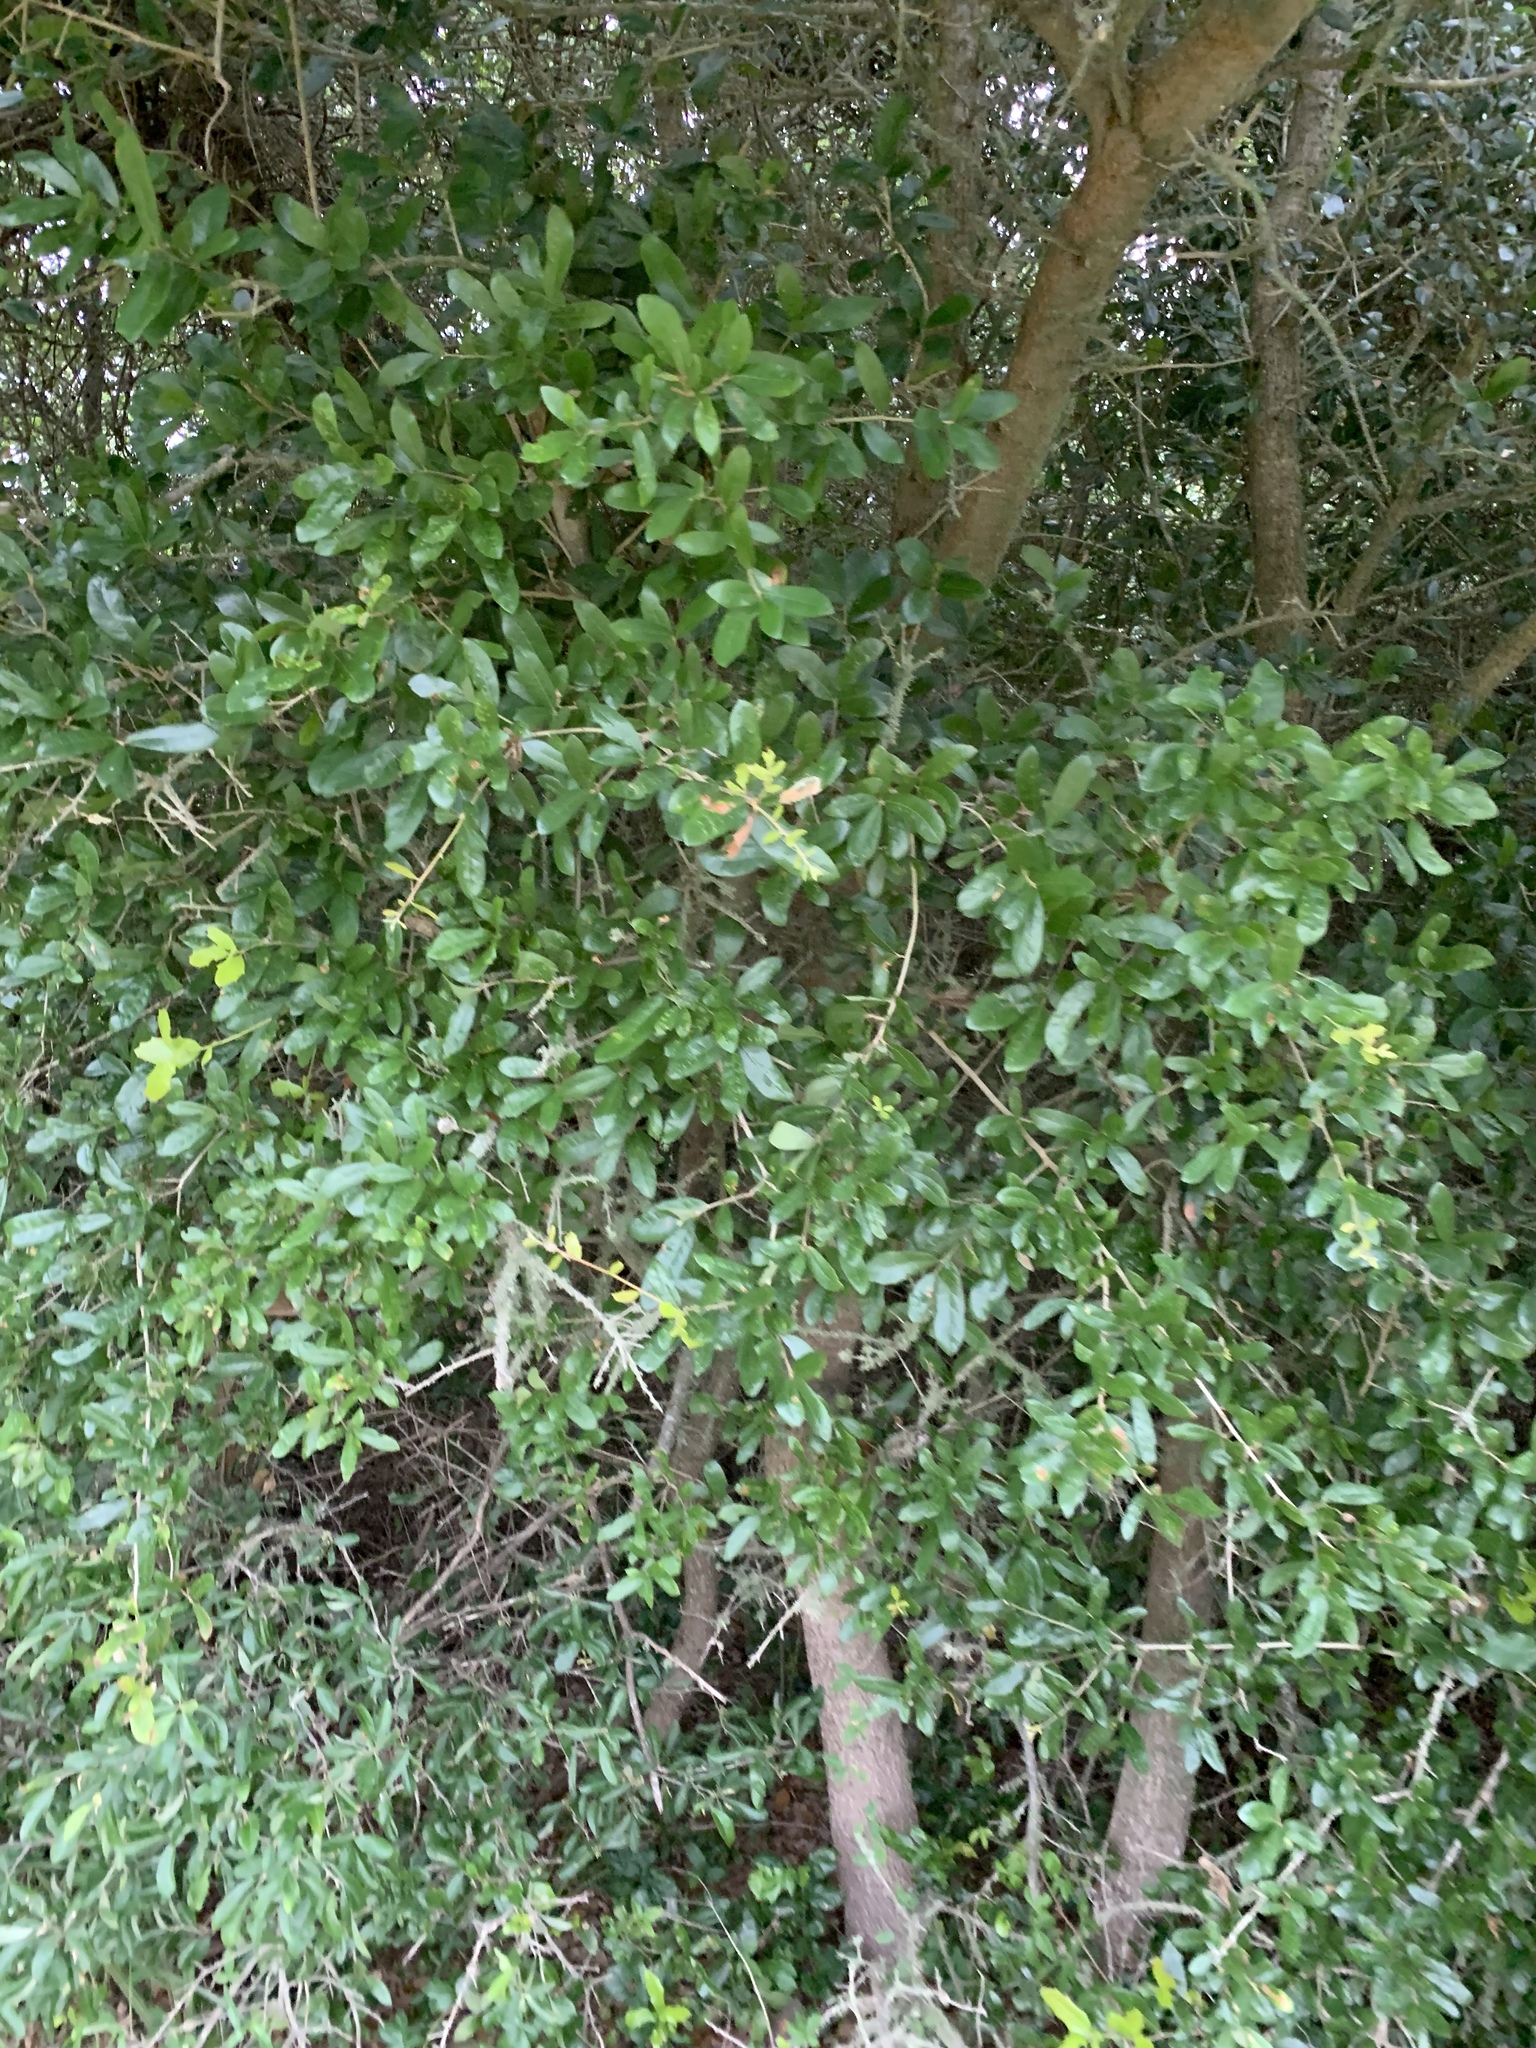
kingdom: Plantae
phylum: Tracheophyta
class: Magnoliopsida
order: Fagales
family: Fagaceae
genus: Quercus
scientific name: Quercus virginiana
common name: Southern live oak
